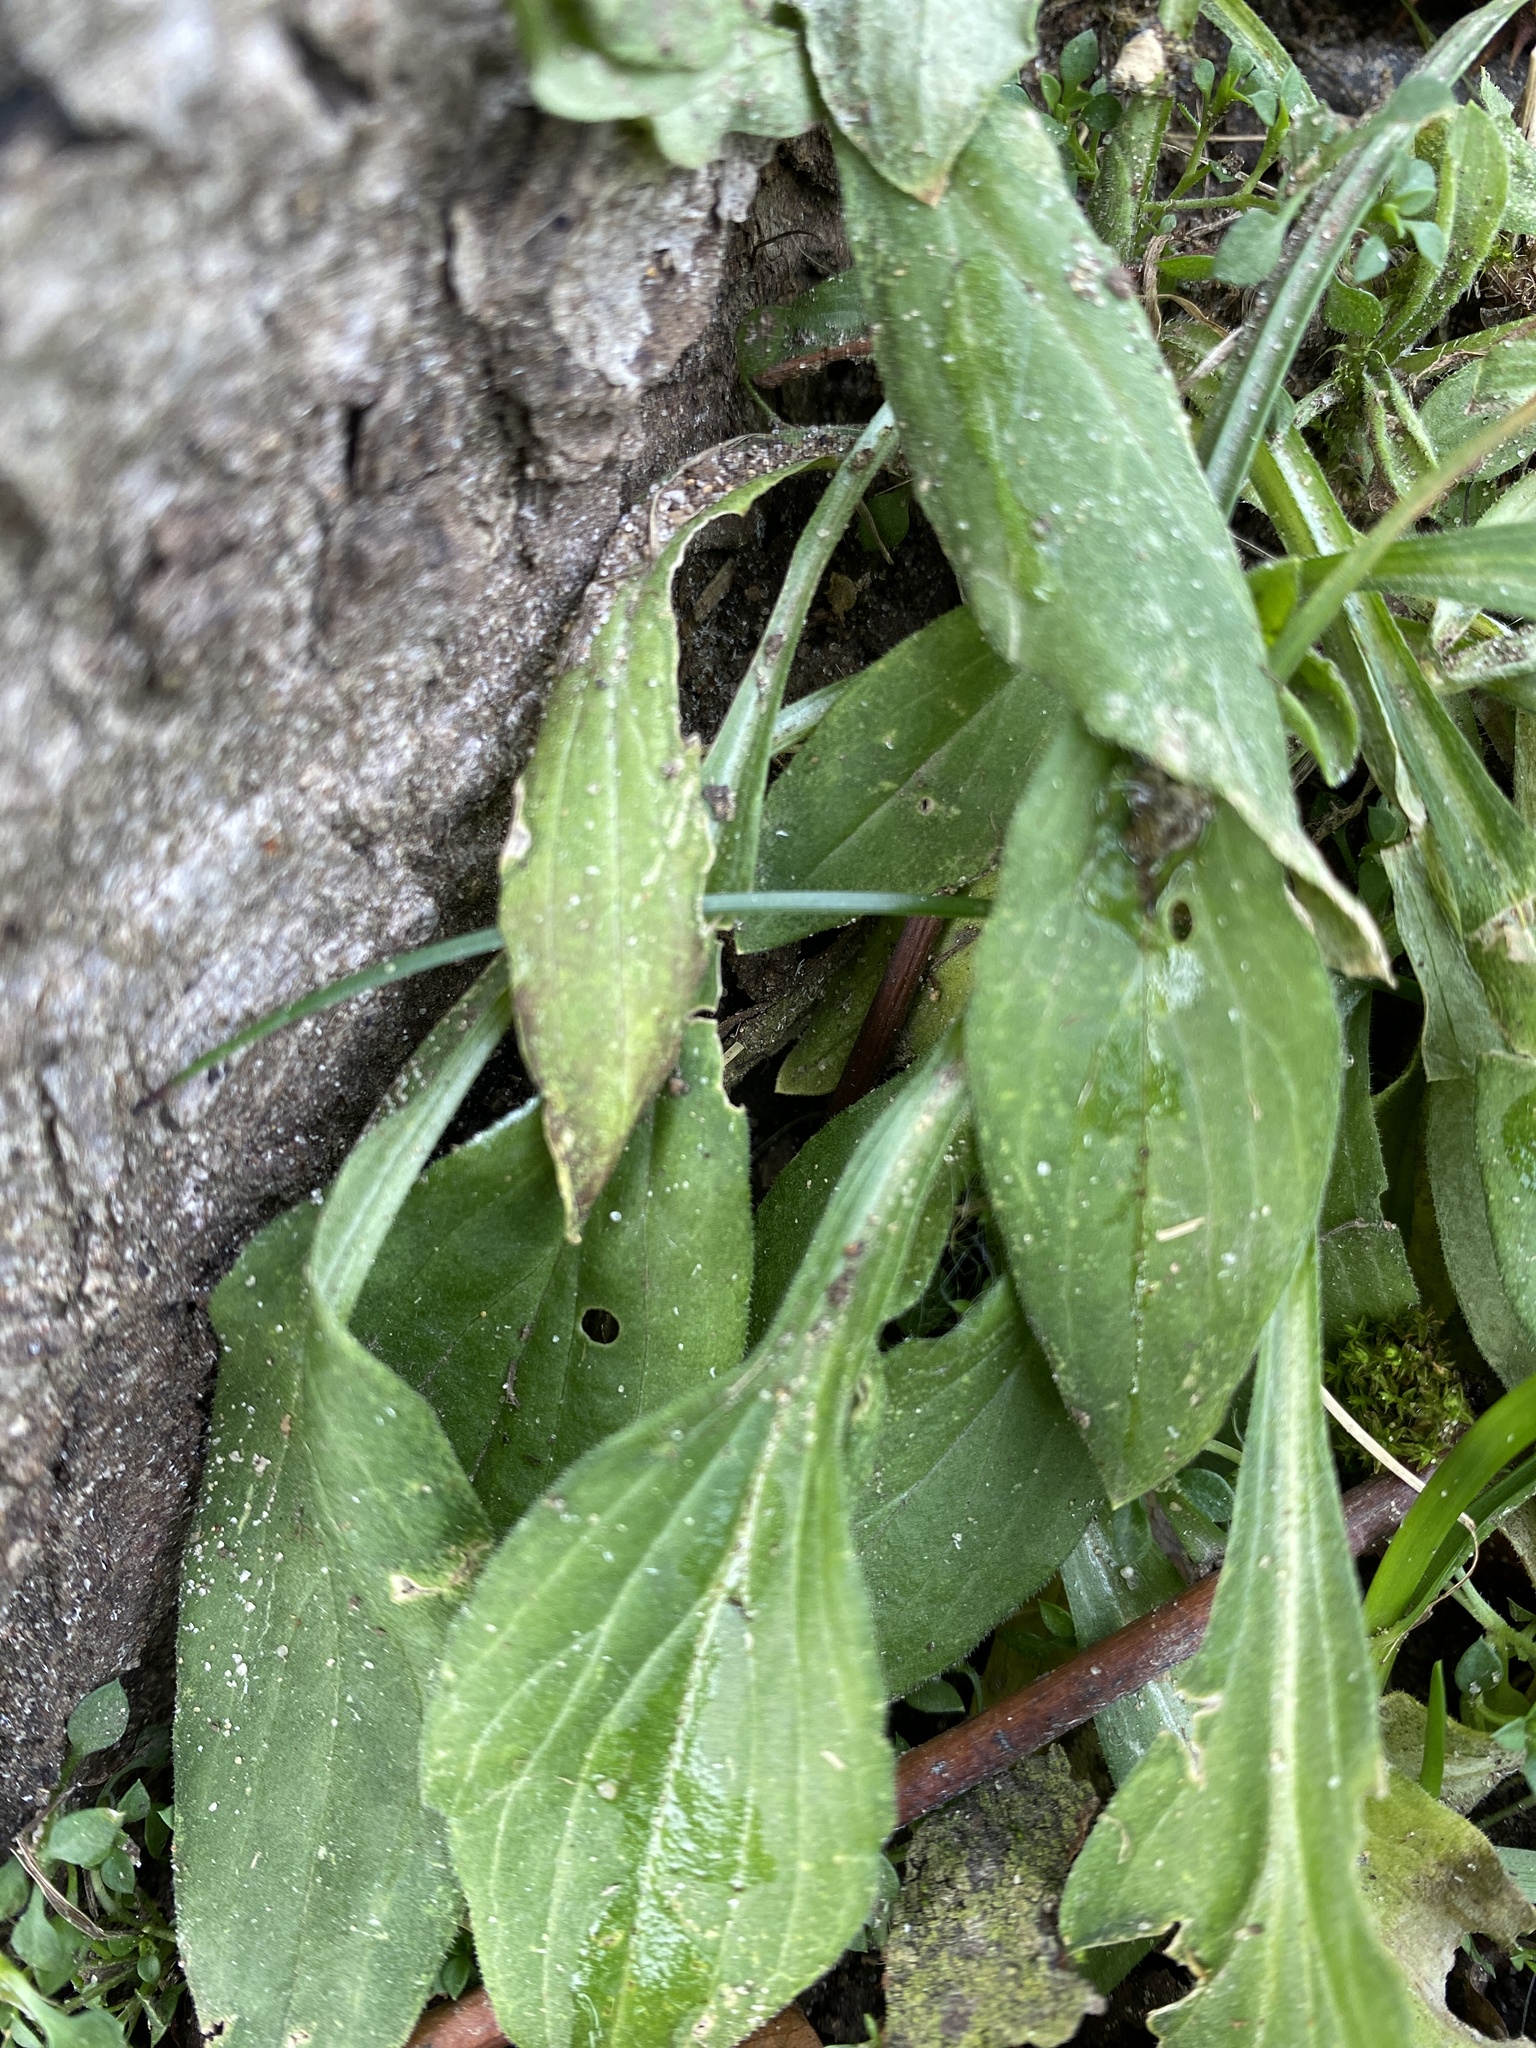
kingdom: Plantae
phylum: Tracheophyta
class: Magnoliopsida
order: Caryophyllales
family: Caryophyllaceae
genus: Silene
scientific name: Silene latifolia
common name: White campion
